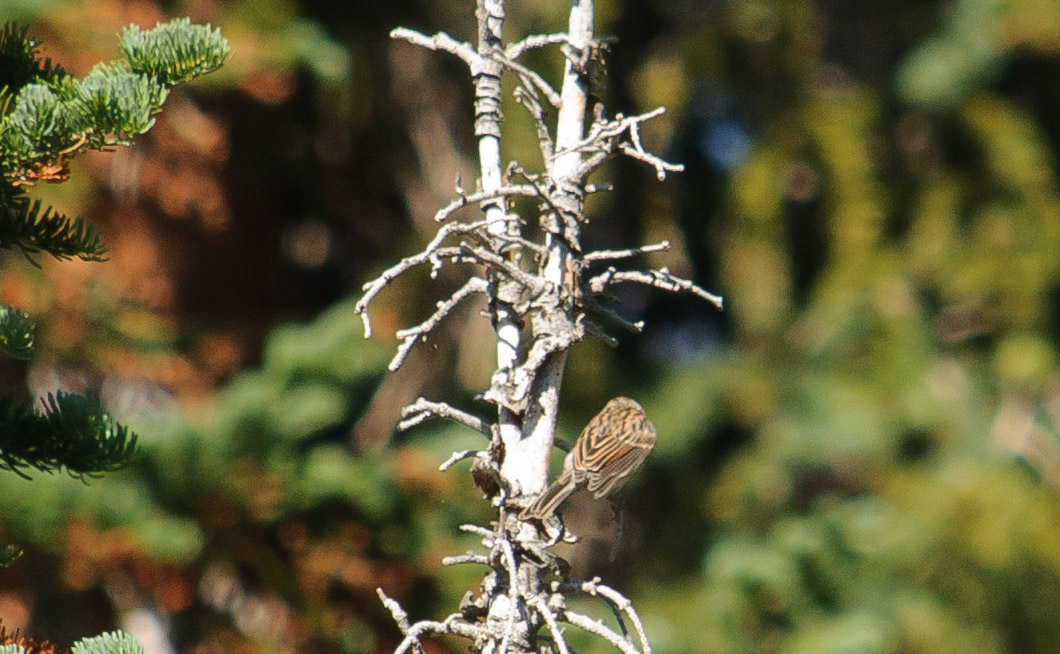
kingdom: Animalia
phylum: Chordata
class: Aves
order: Passeriformes
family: Passerellidae
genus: Spizella
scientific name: Spizella passerina
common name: Chipping sparrow
